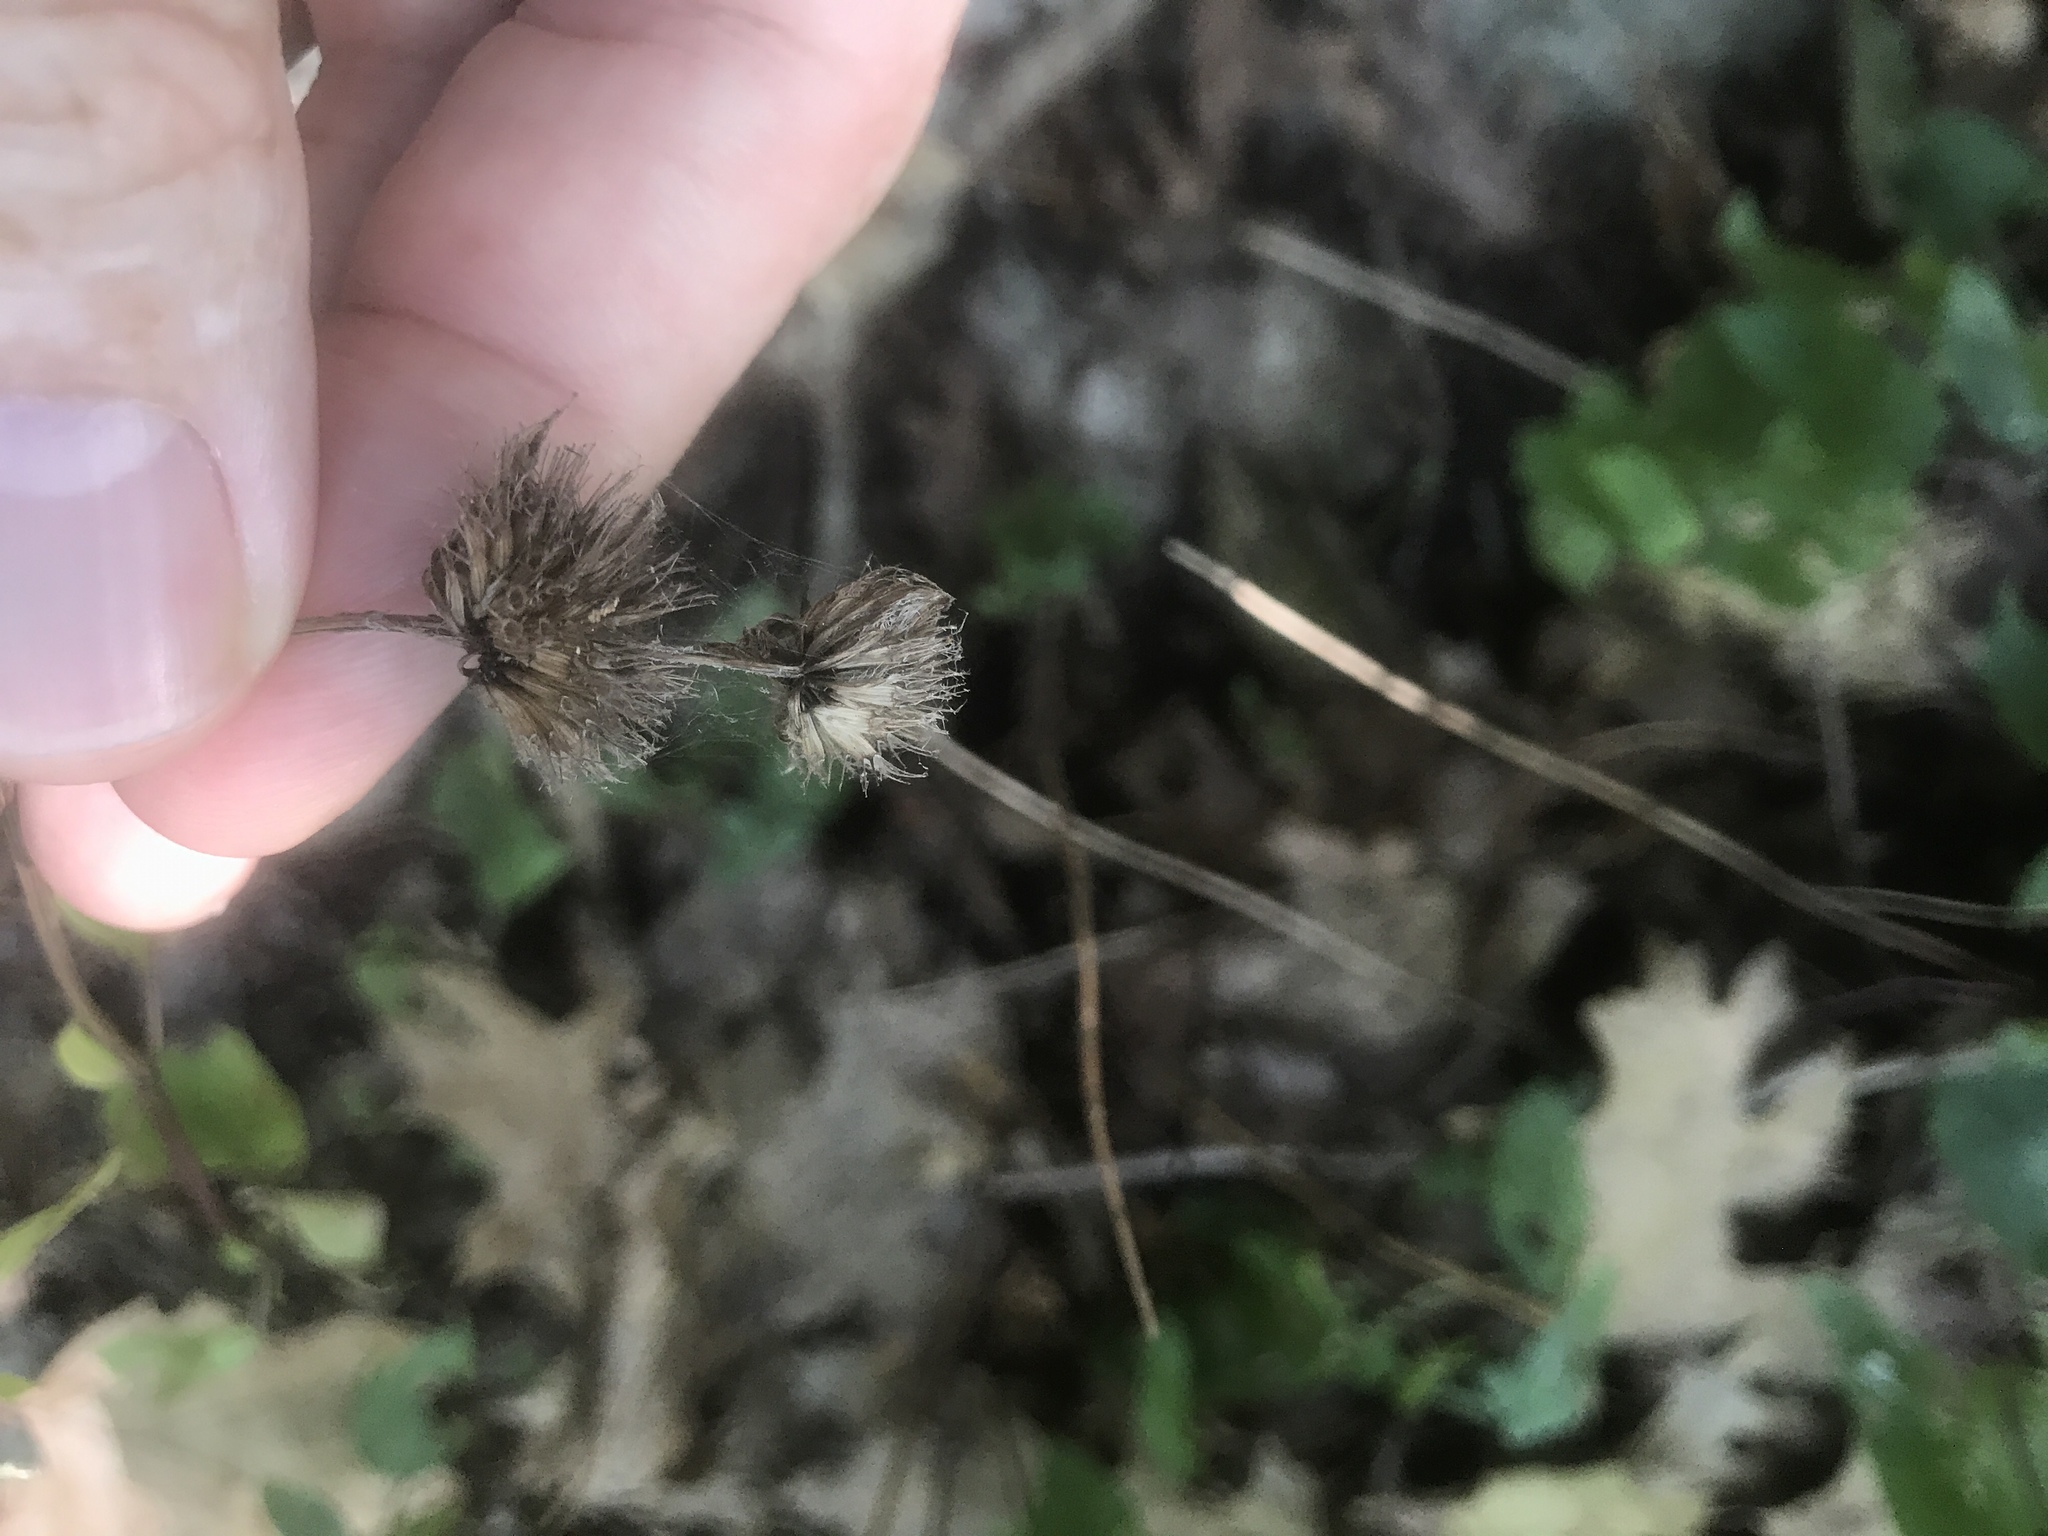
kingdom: Plantae
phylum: Tracheophyta
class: Magnoliopsida
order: Lamiales
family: Lamiaceae
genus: Blephilia
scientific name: Blephilia subnuda
